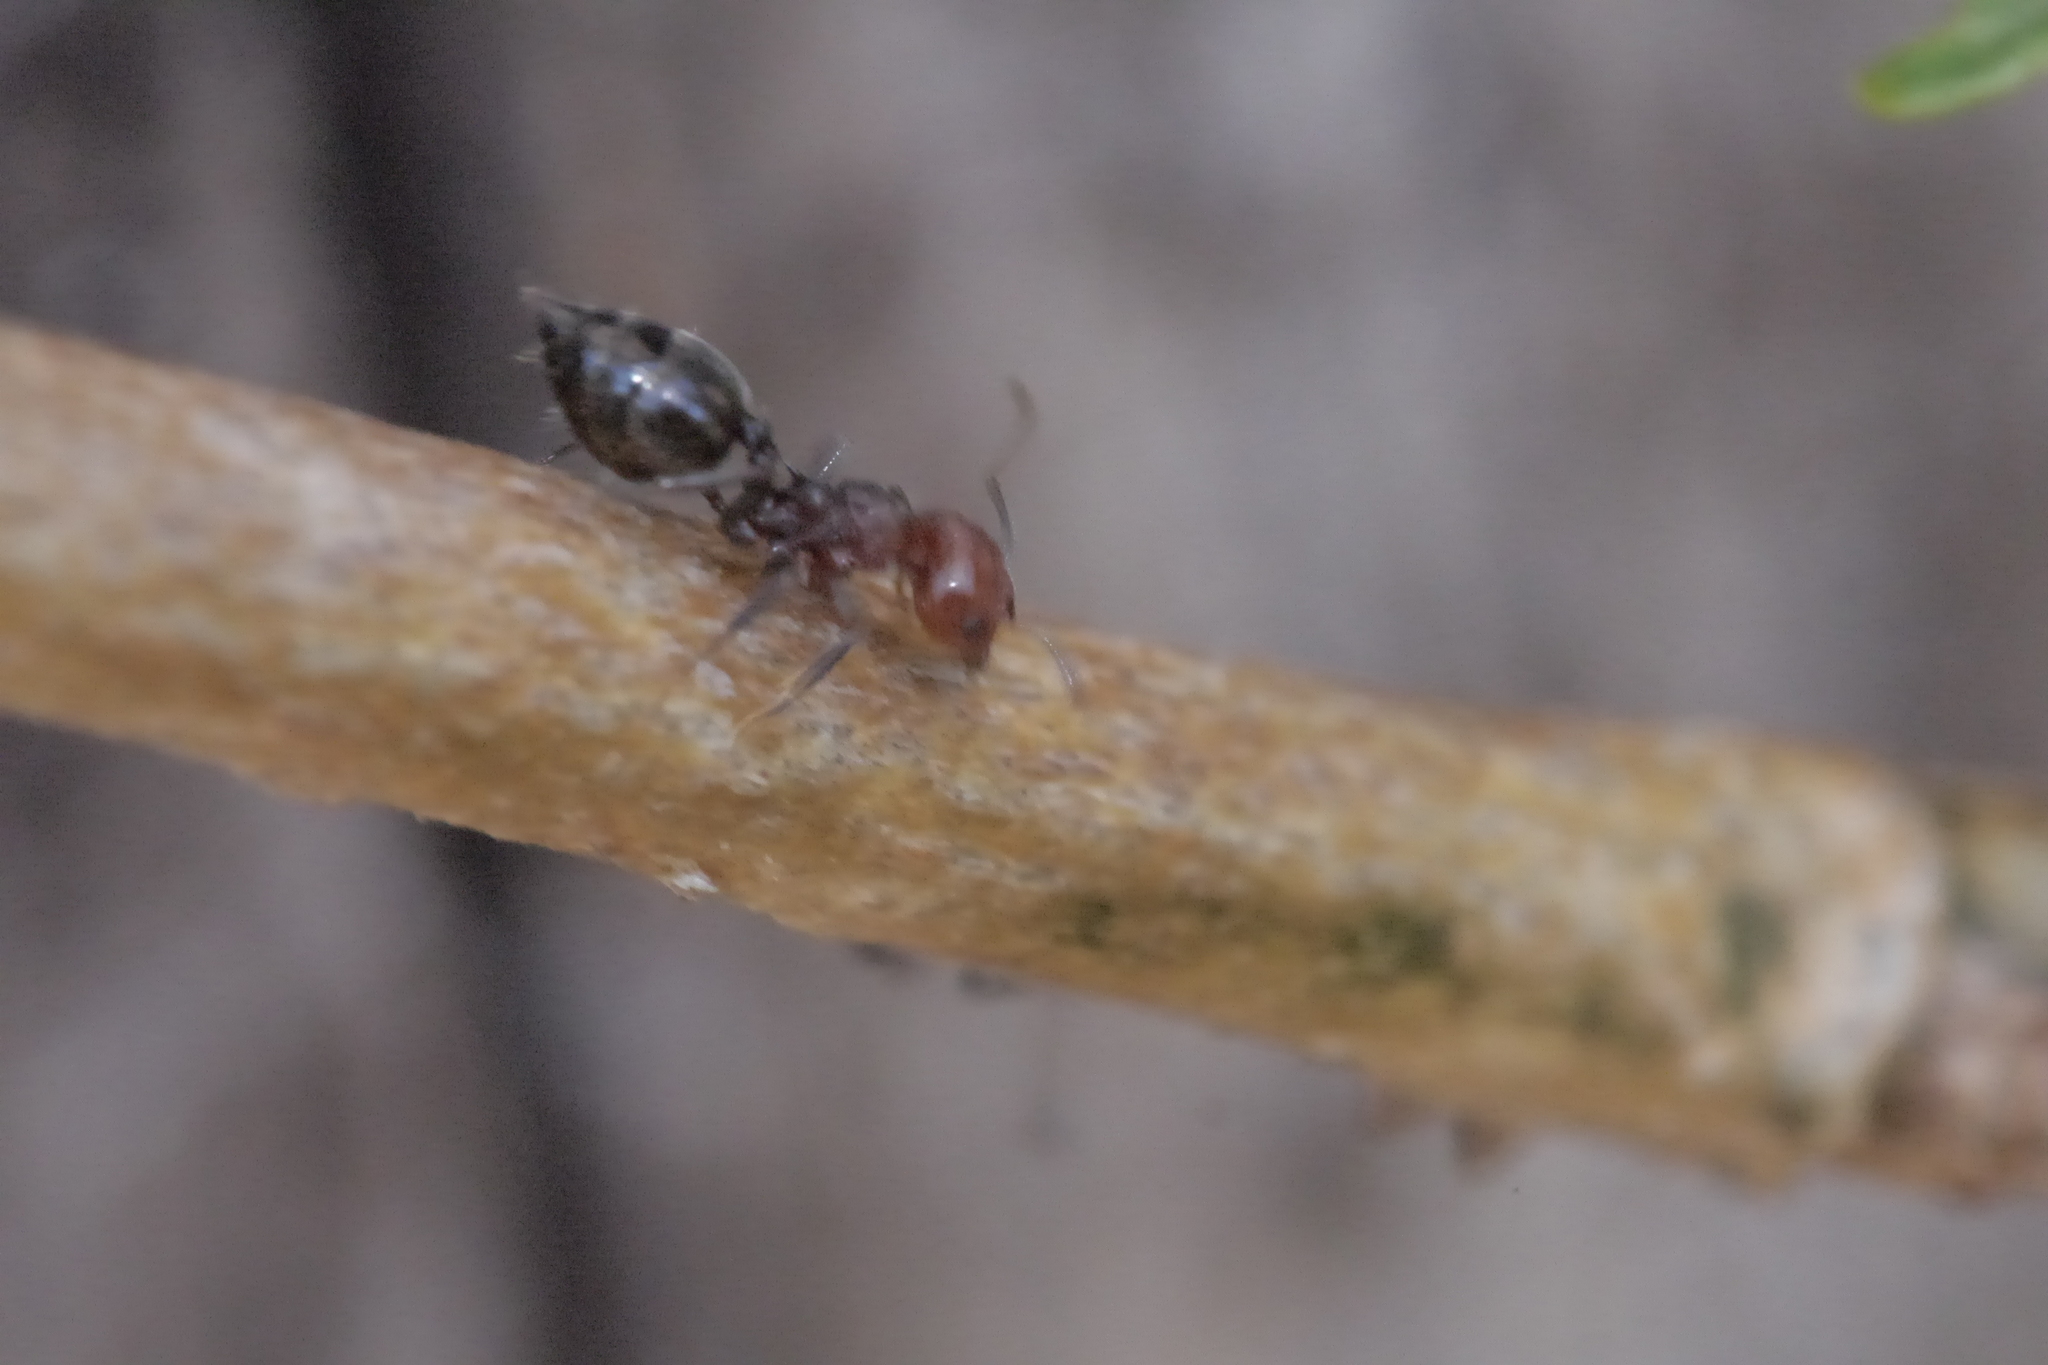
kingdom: Animalia
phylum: Arthropoda
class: Insecta
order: Hymenoptera
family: Formicidae
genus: Crematogaster
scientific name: Crematogaster scutellaris
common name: Fourmi du liège
